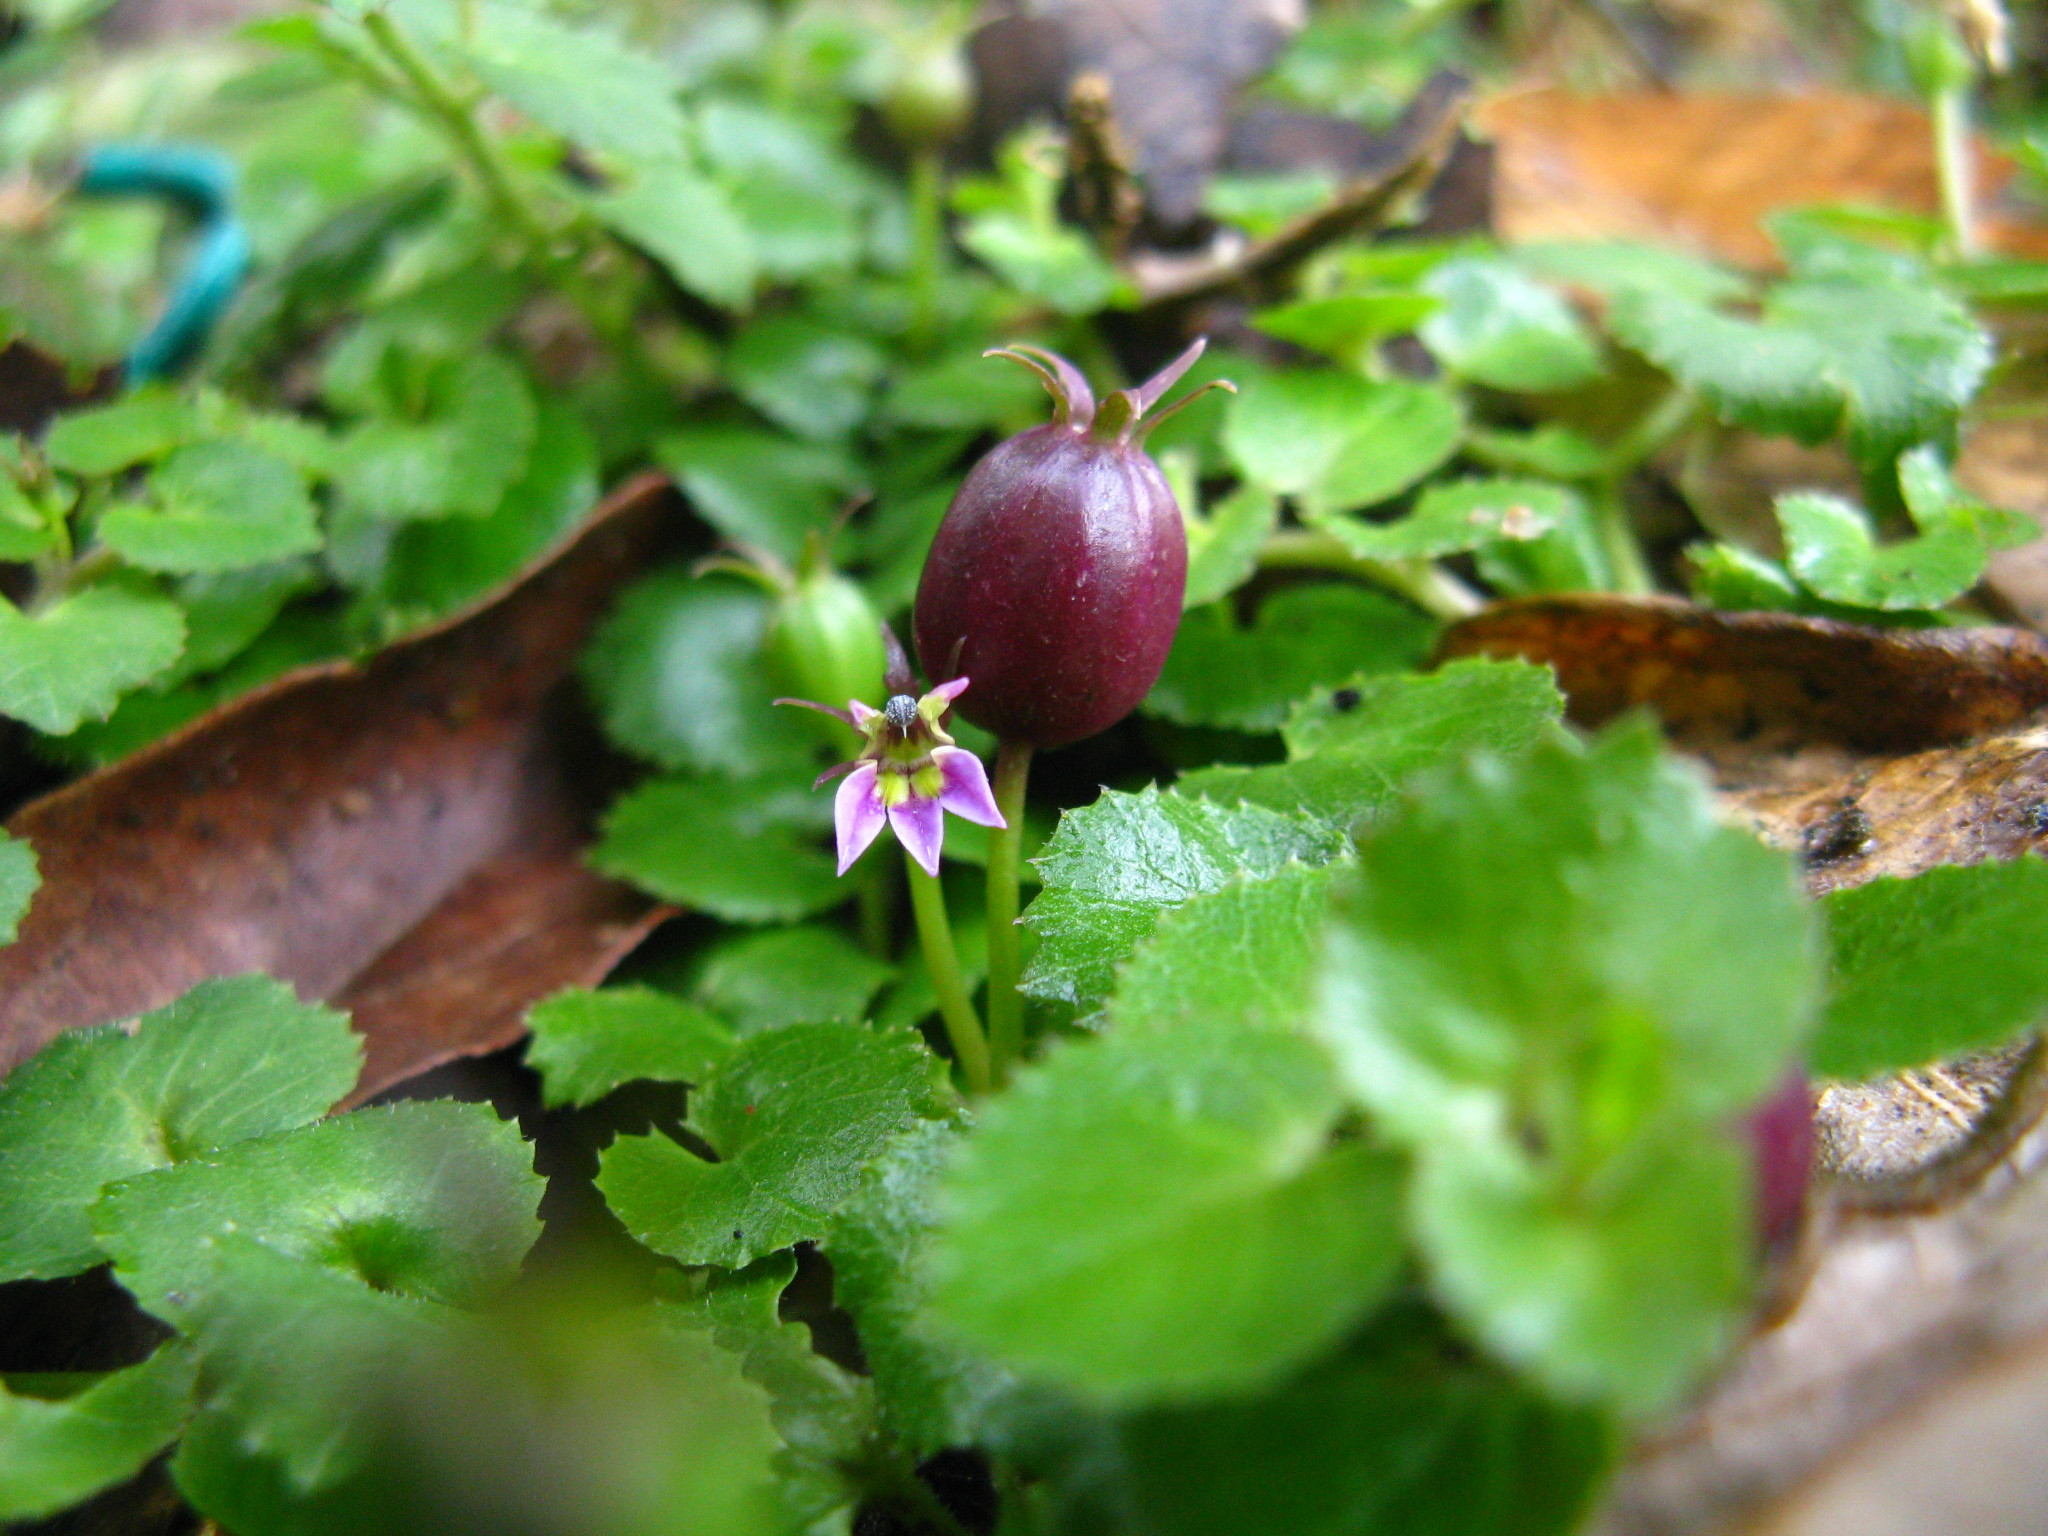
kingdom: Plantae
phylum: Tracheophyta
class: Magnoliopsida
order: Asterales
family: Campanulaceae
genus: Lobelia
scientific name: Lobelia nummularia
